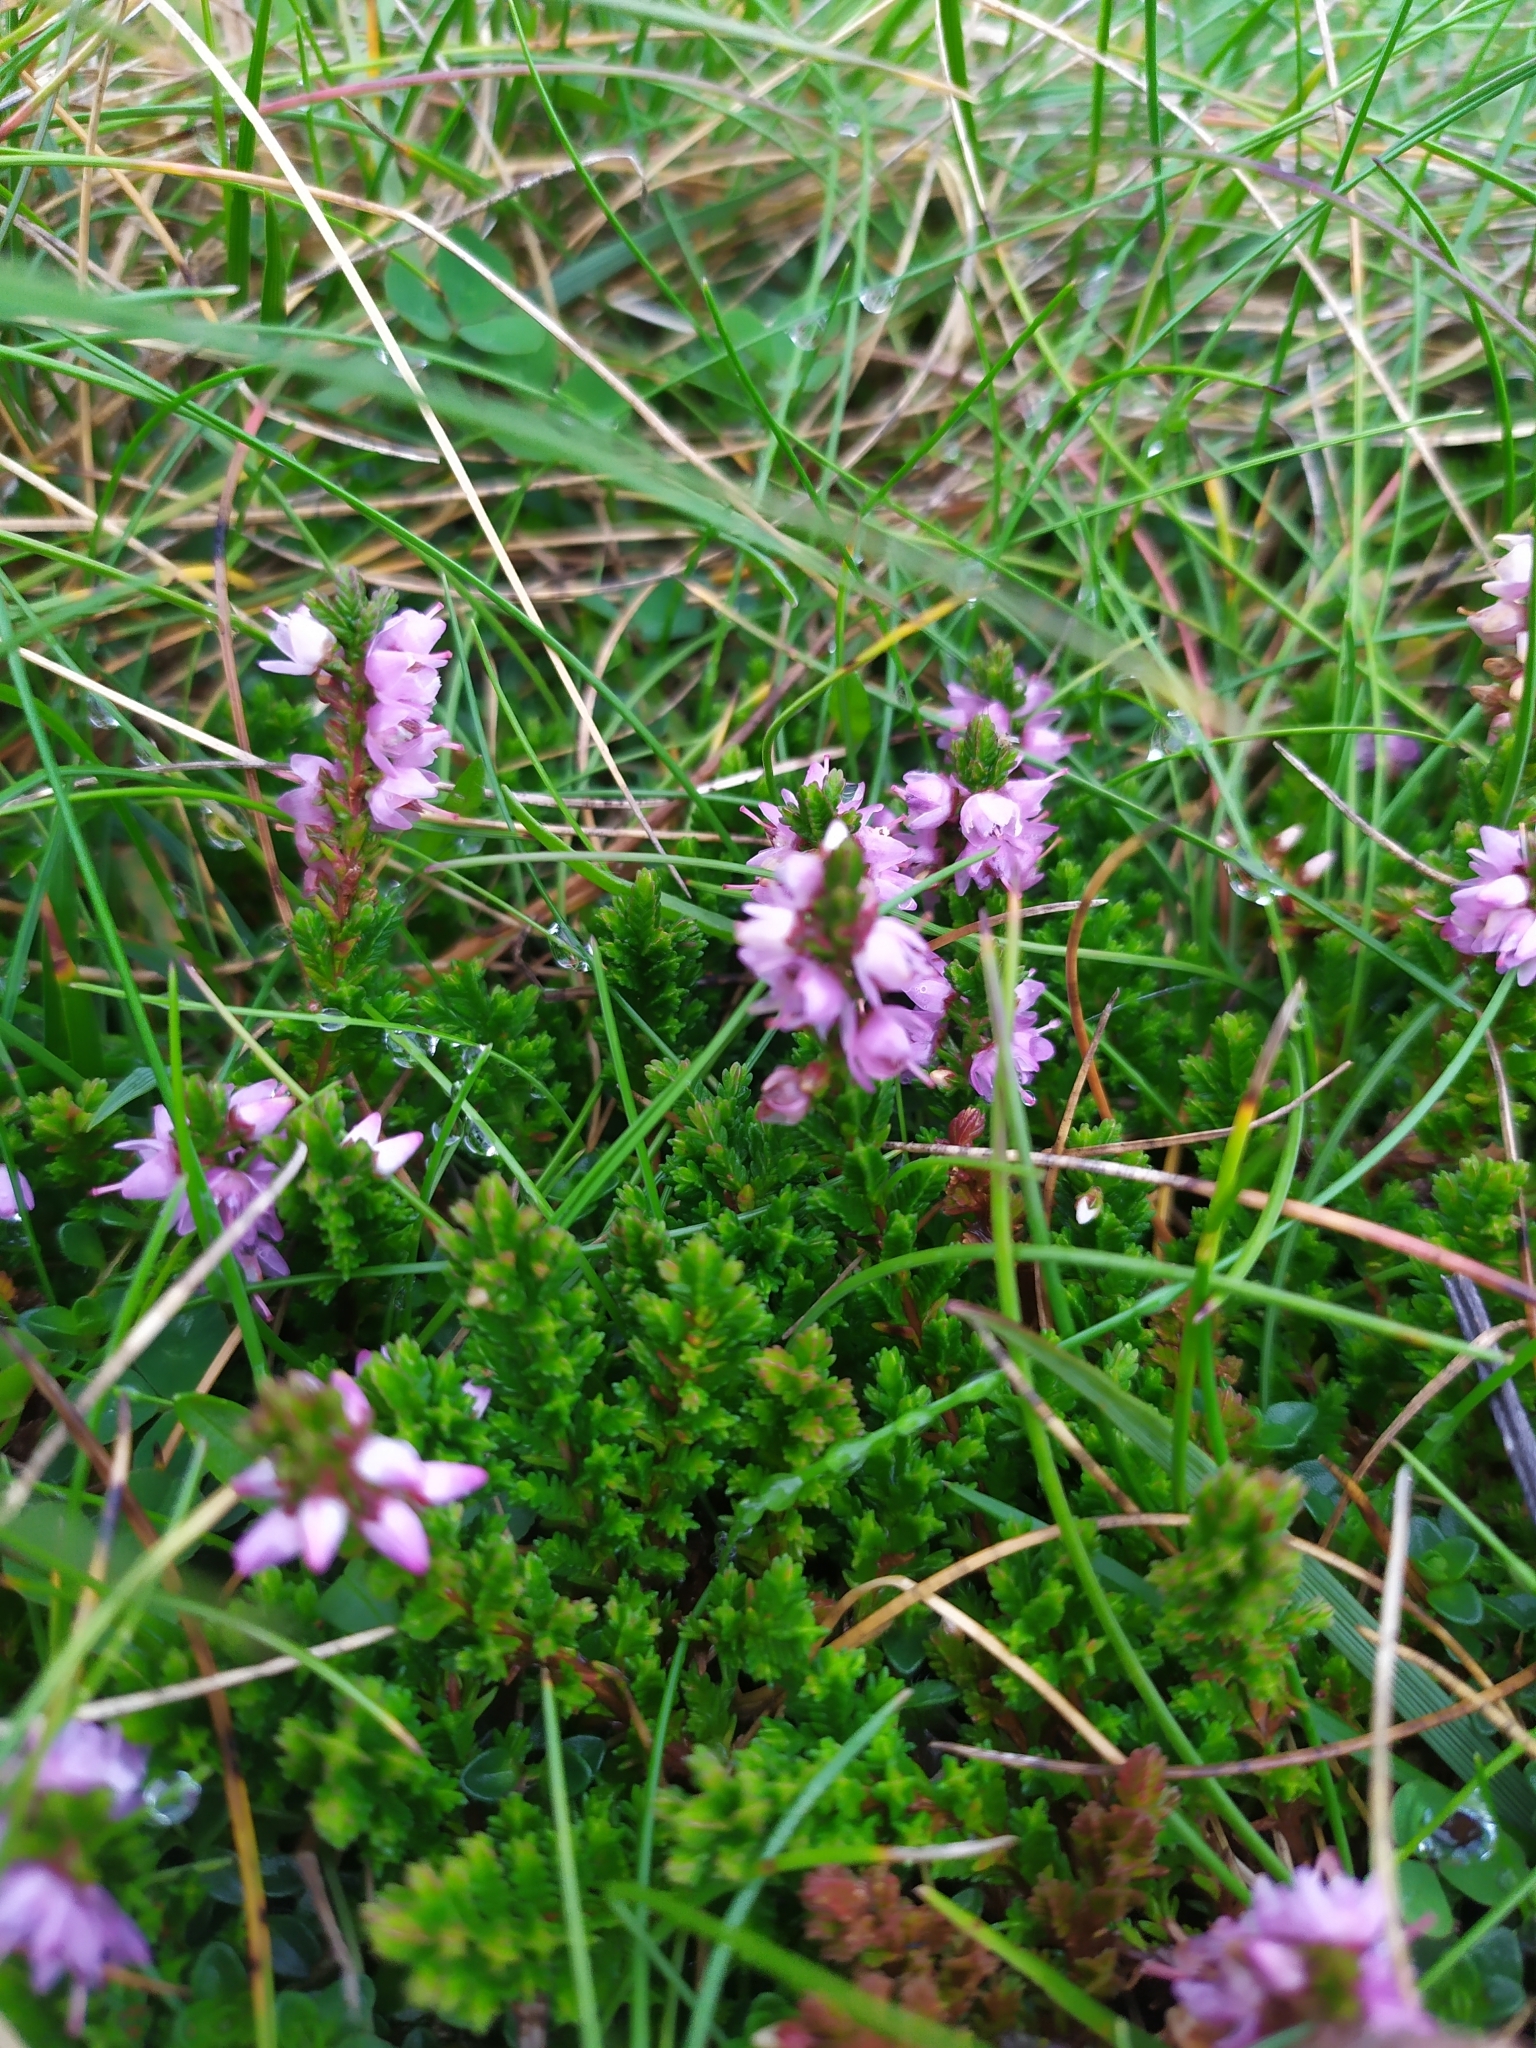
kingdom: Plantae
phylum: Tracheophyta
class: Magnoliopsida
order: Ericales
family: Ericaceae
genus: Calluna
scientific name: Calluna vulgaris
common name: Heather
